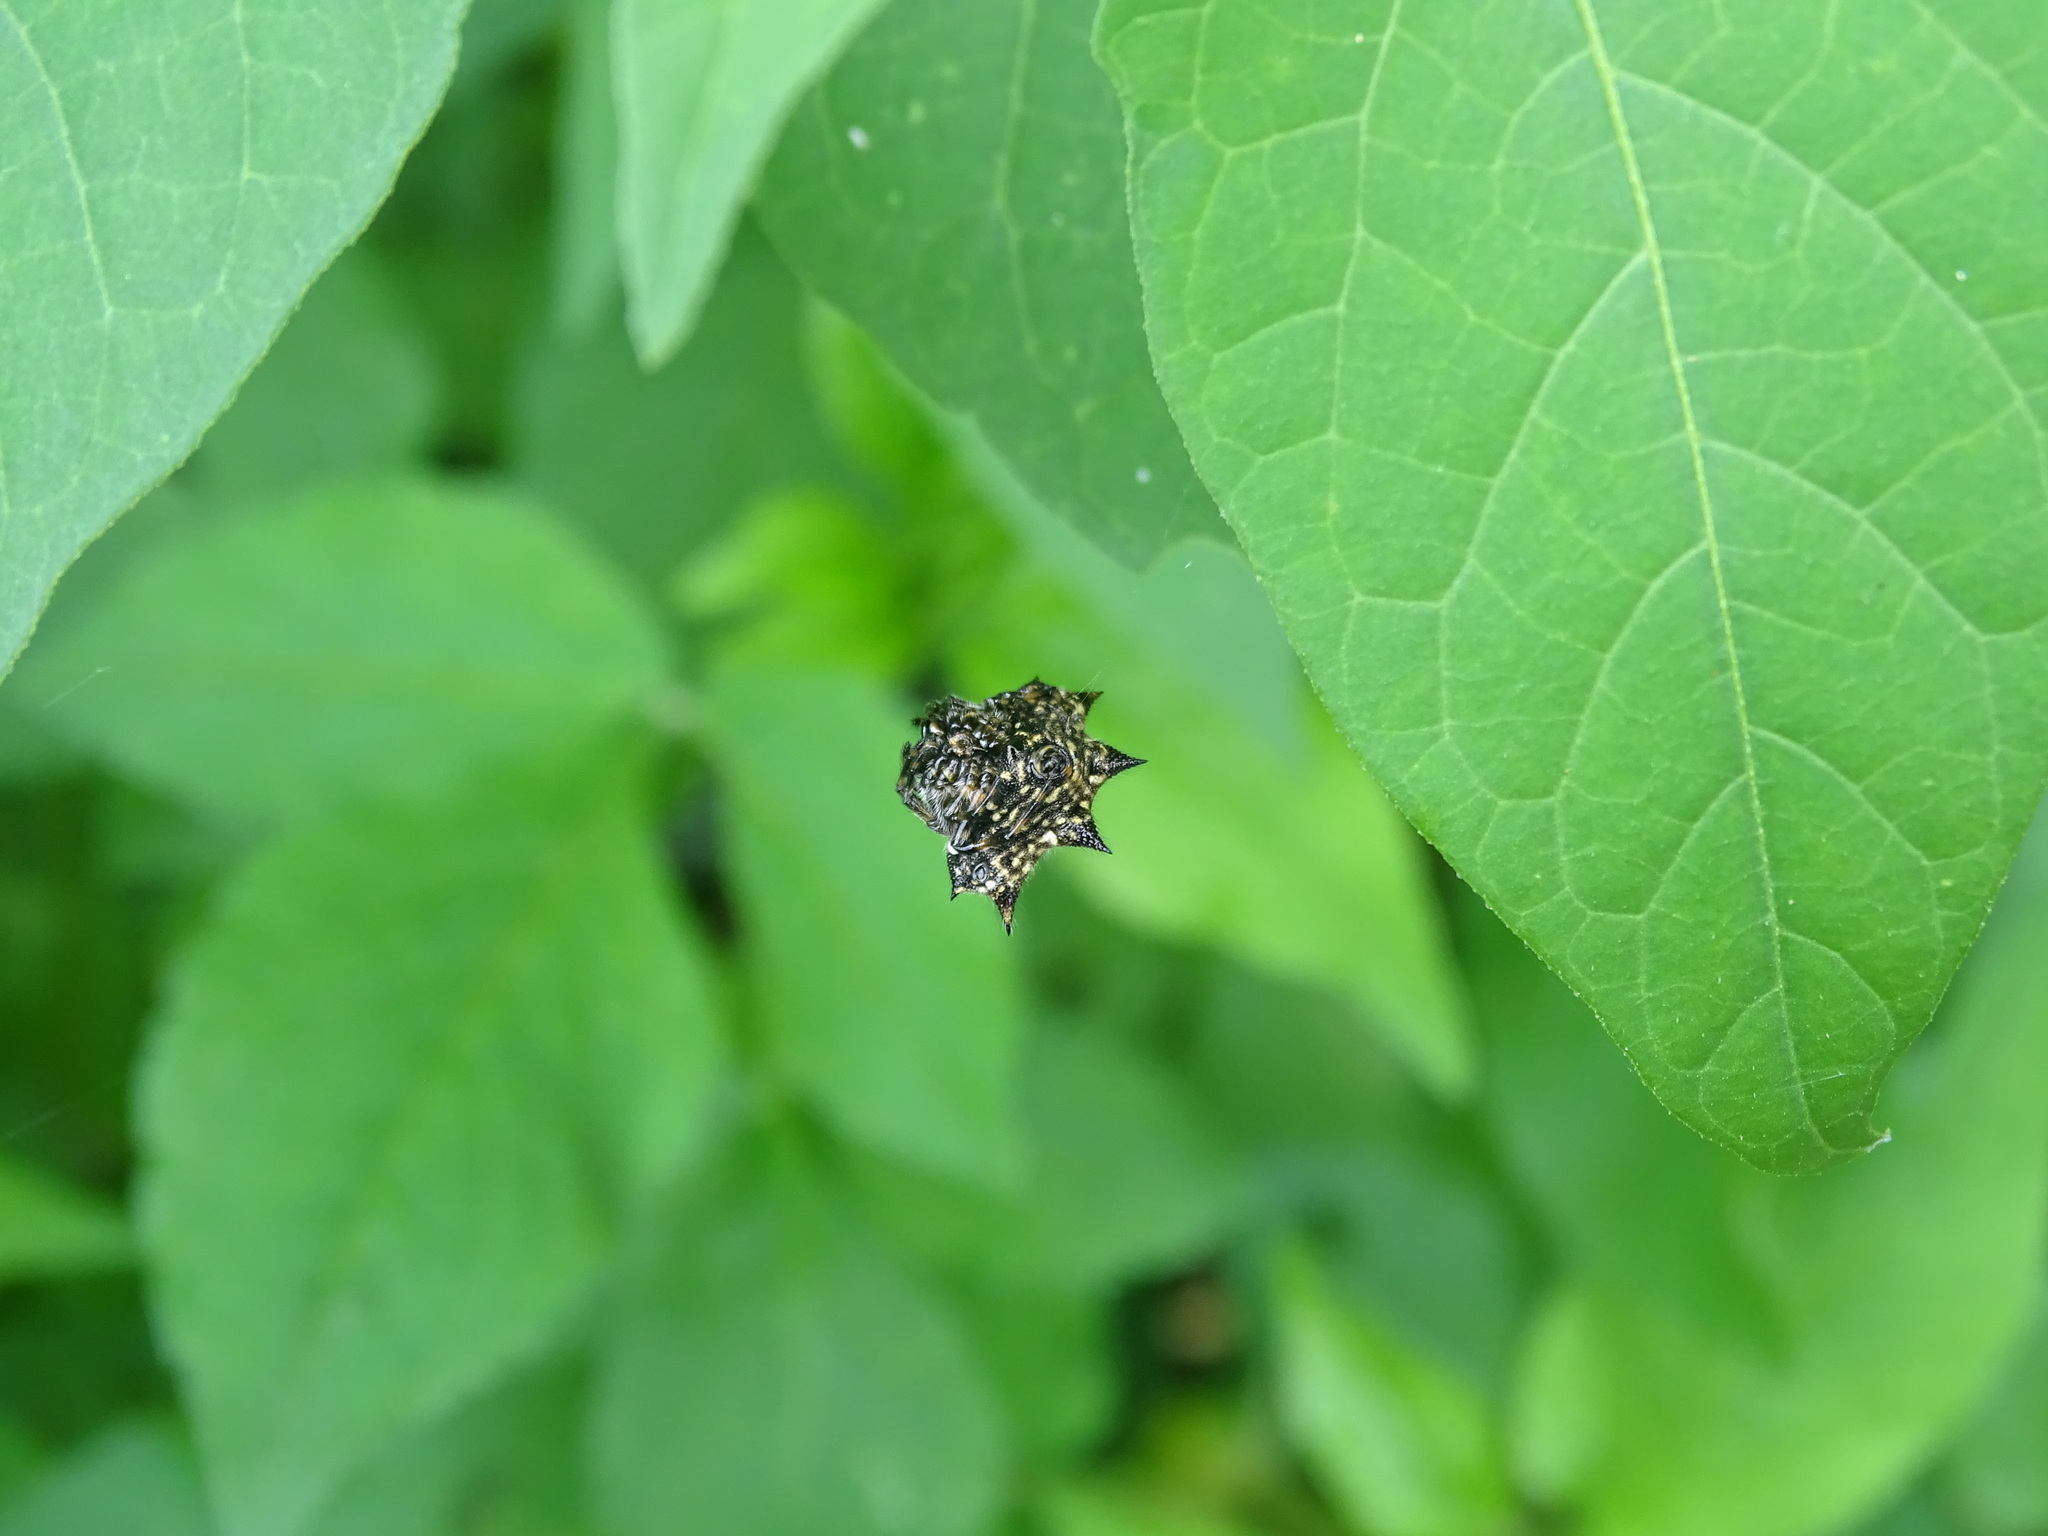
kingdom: Animalia
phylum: Arthropoda
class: Arachnida
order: Araneae
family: Araneidae
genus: Thelacantha
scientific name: Thelacantha brevispina
